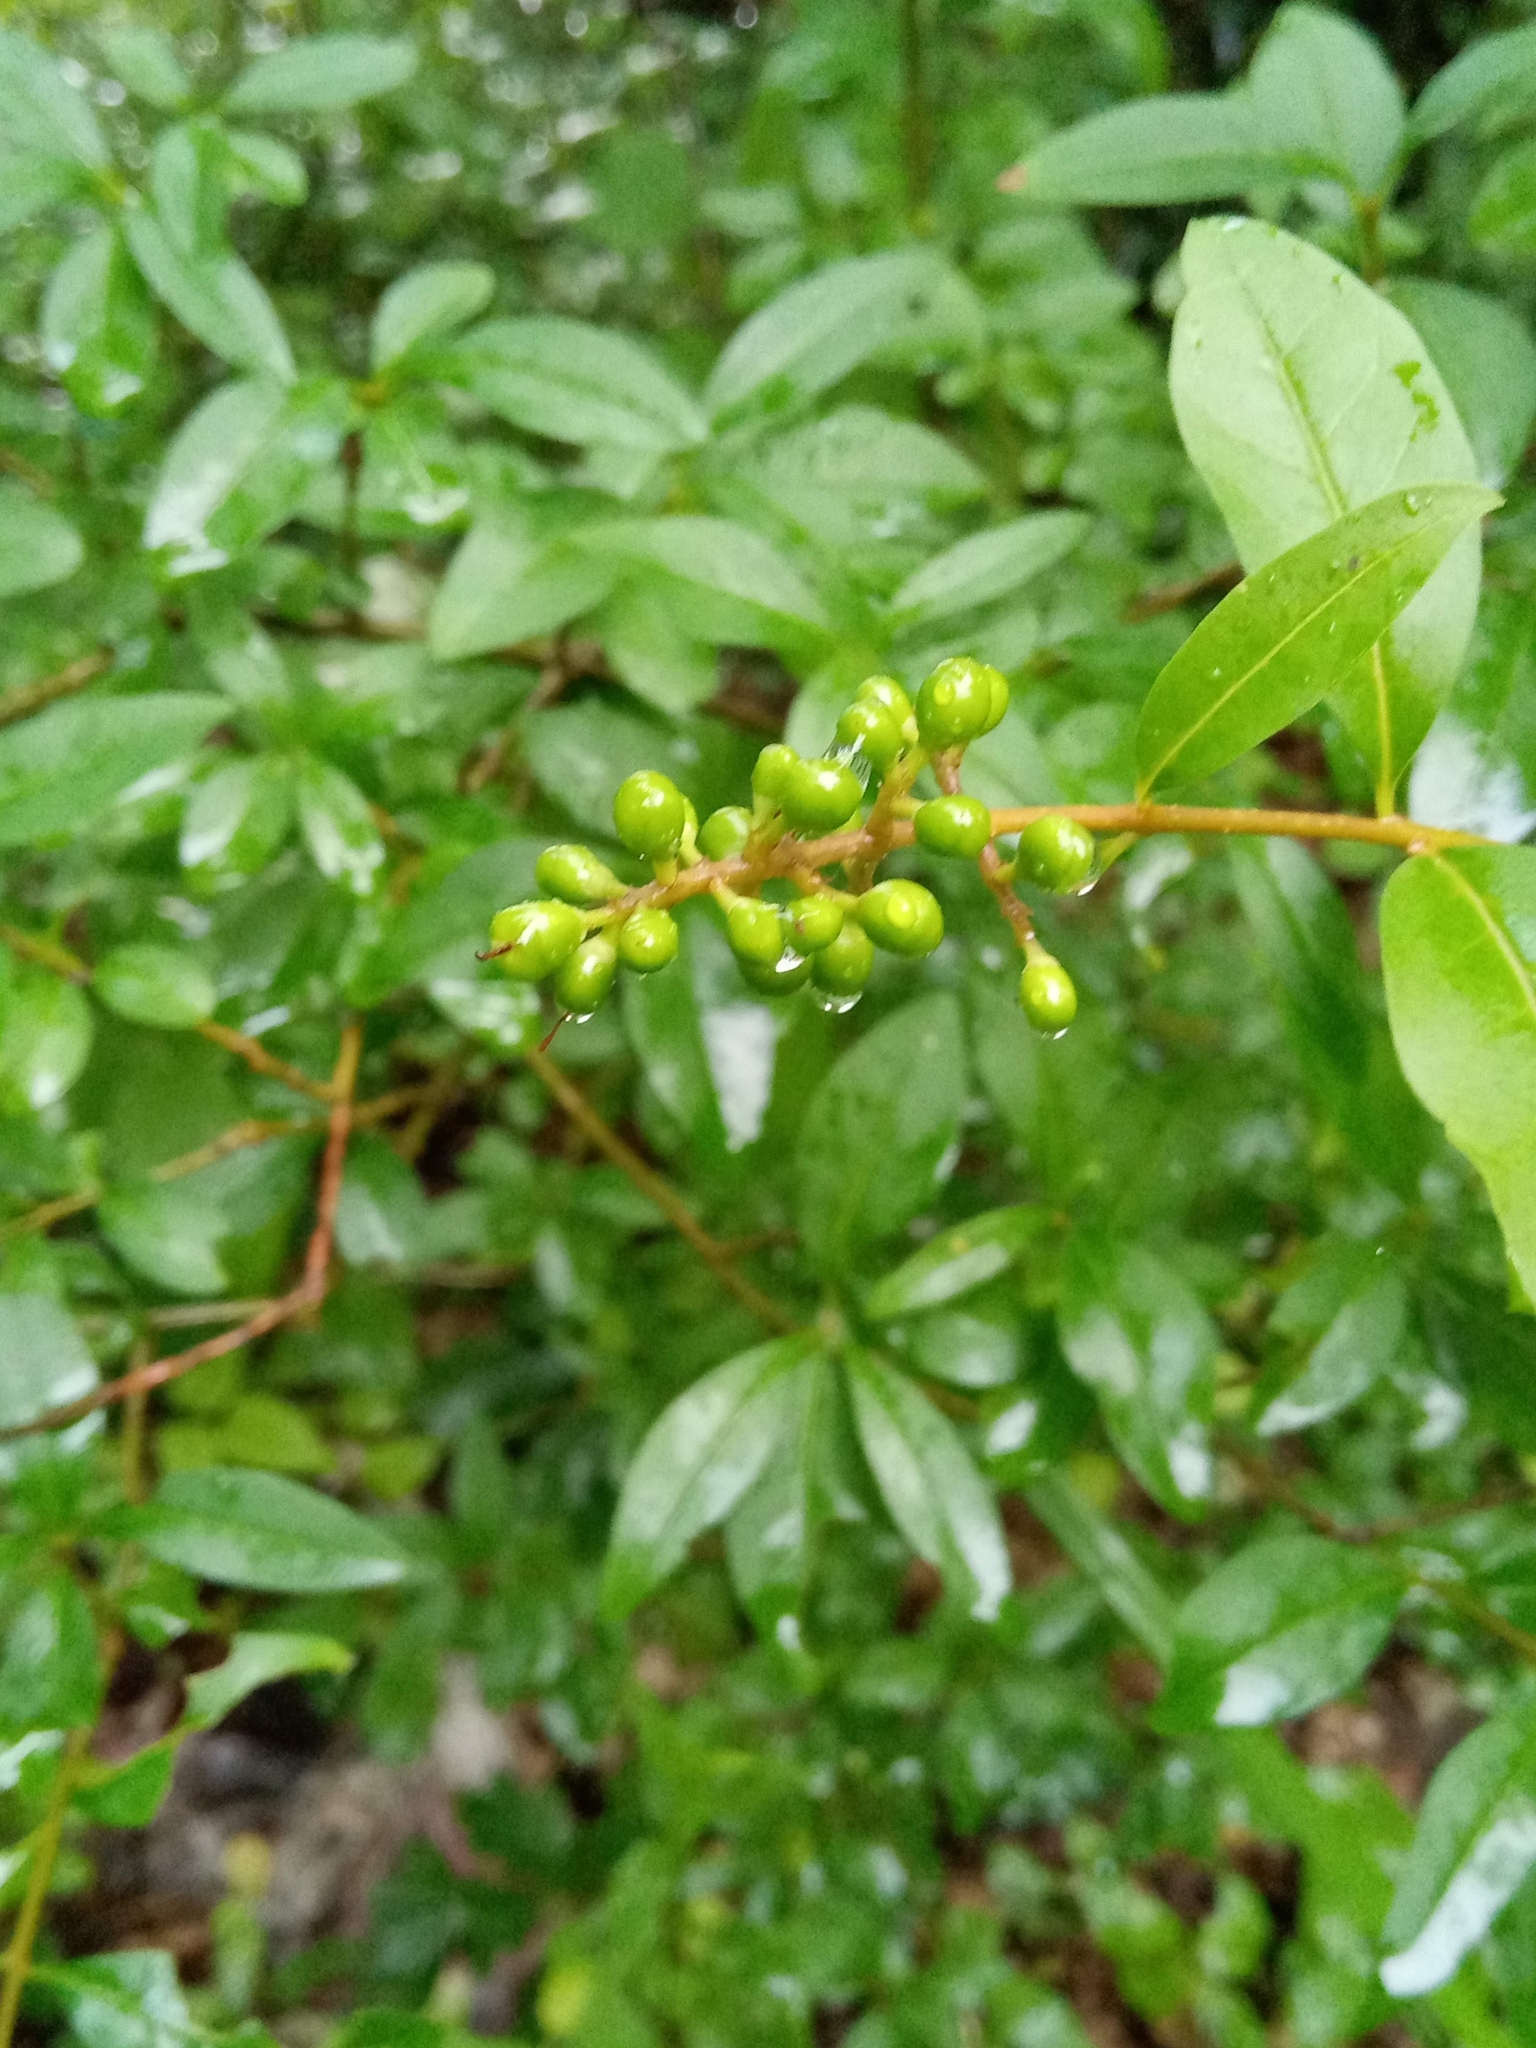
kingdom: Plantae
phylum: Tracheophyta
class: Magnoliopsida
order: Lamiales
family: Oleaceae
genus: Ligustrum
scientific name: Ligustrum vulgare
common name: Wild privet
